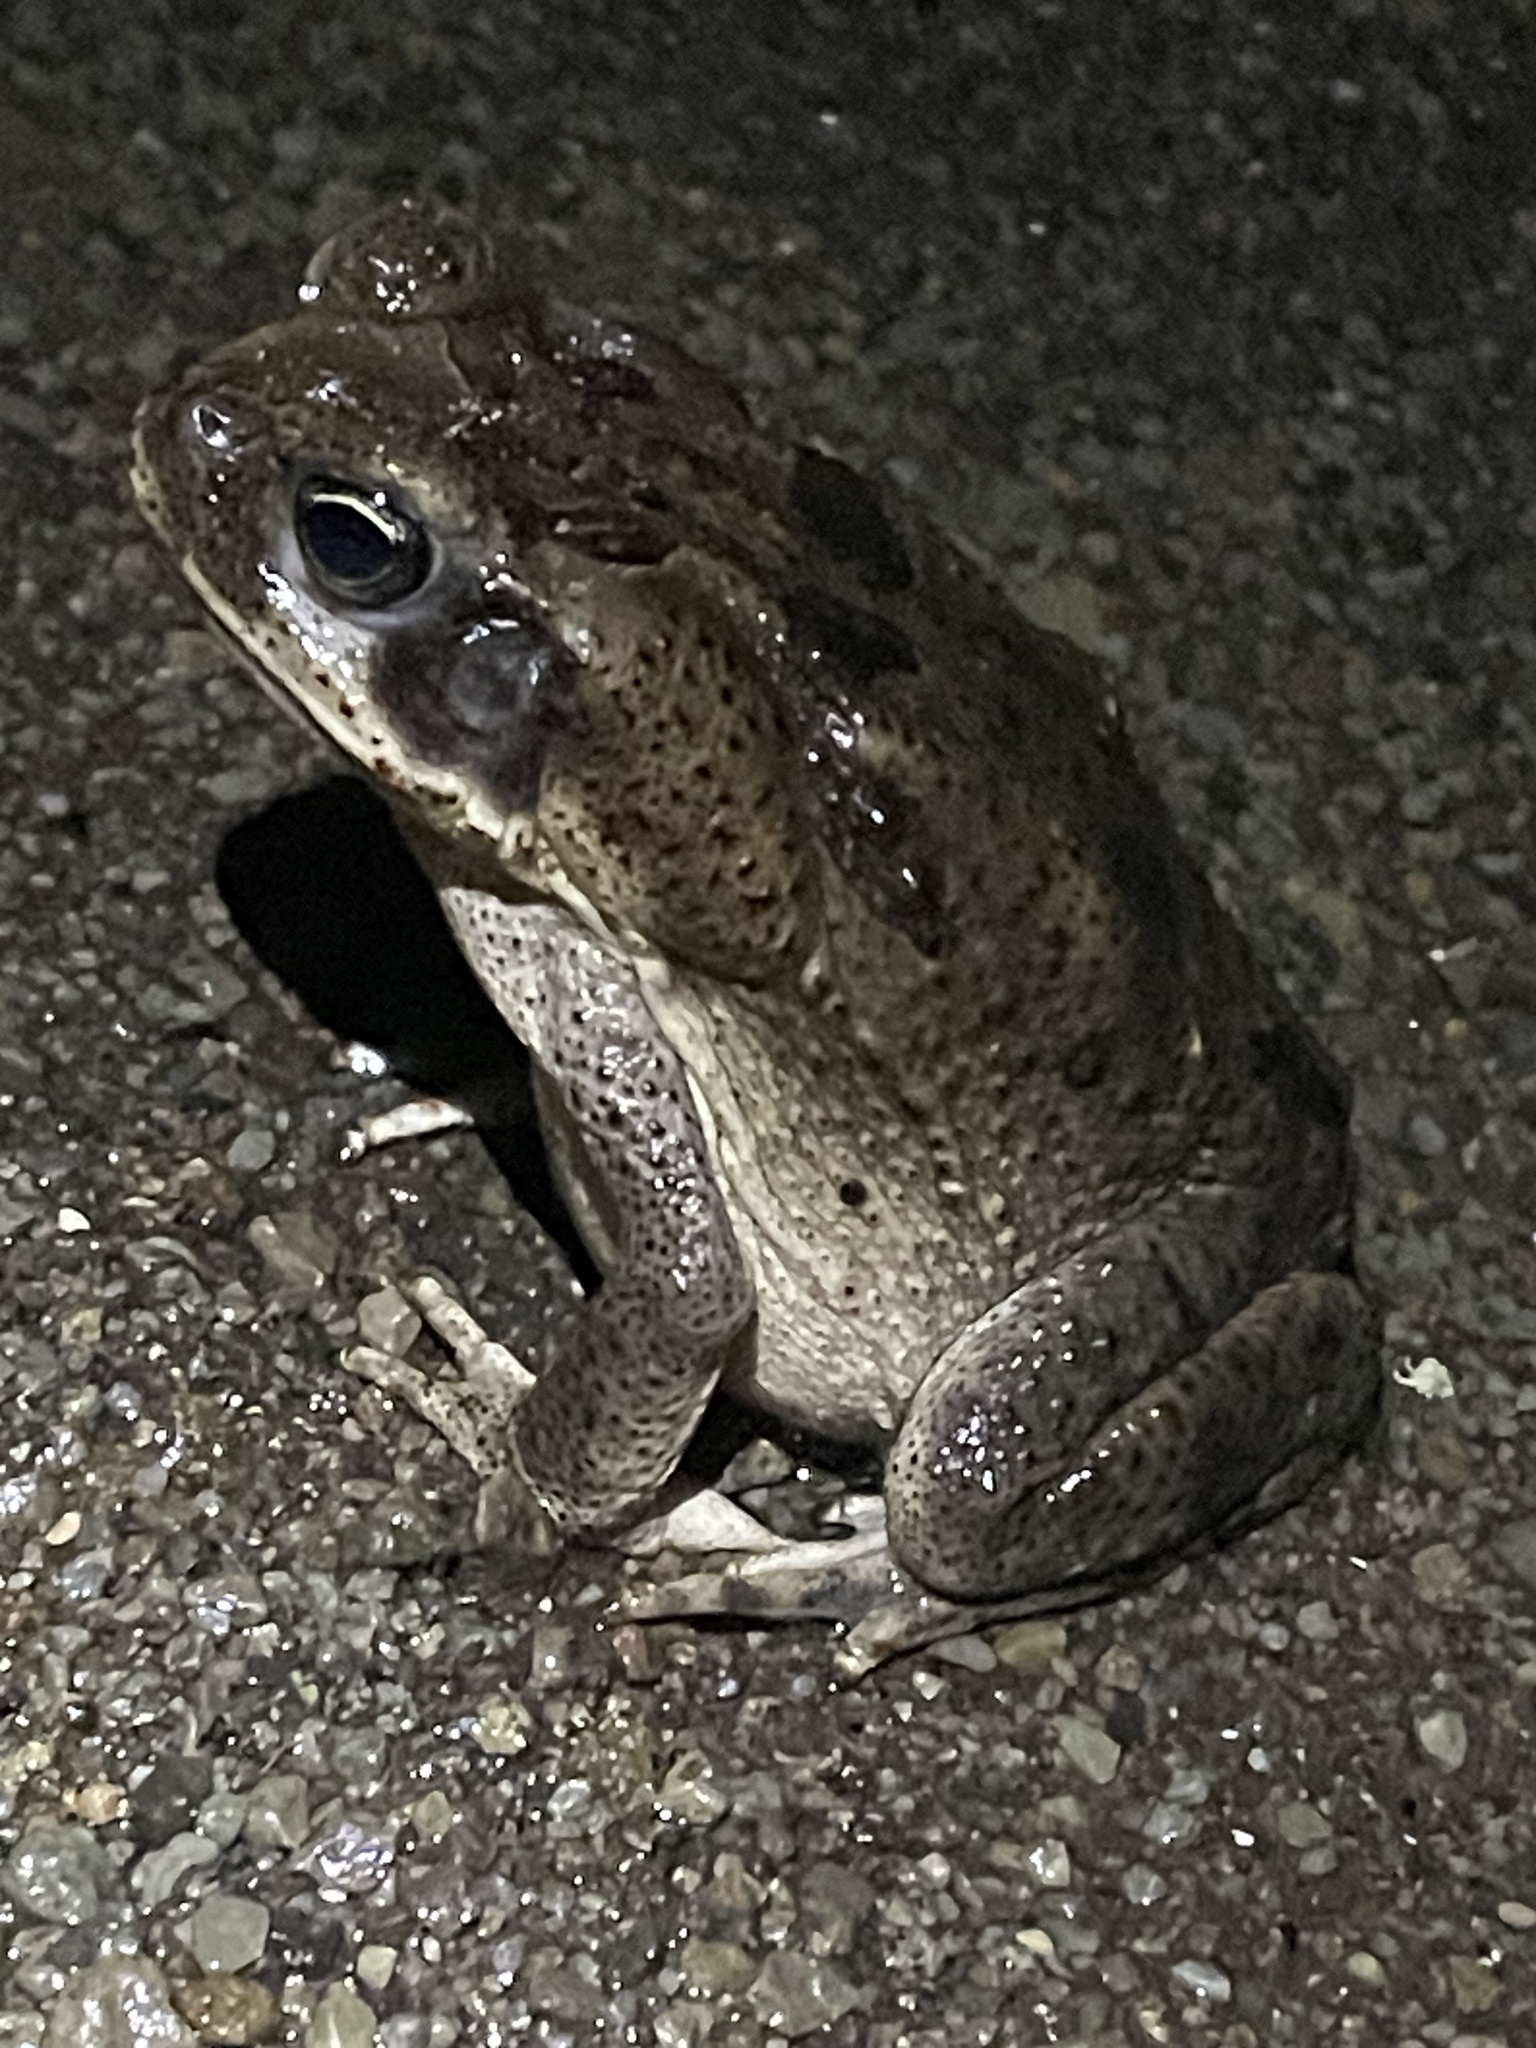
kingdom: Animalia
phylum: Chordata
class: Amphibia
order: Anura
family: Bufonidae
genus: Rhinella
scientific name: Rhinella horribilis
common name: Mesoamerican cane toad
